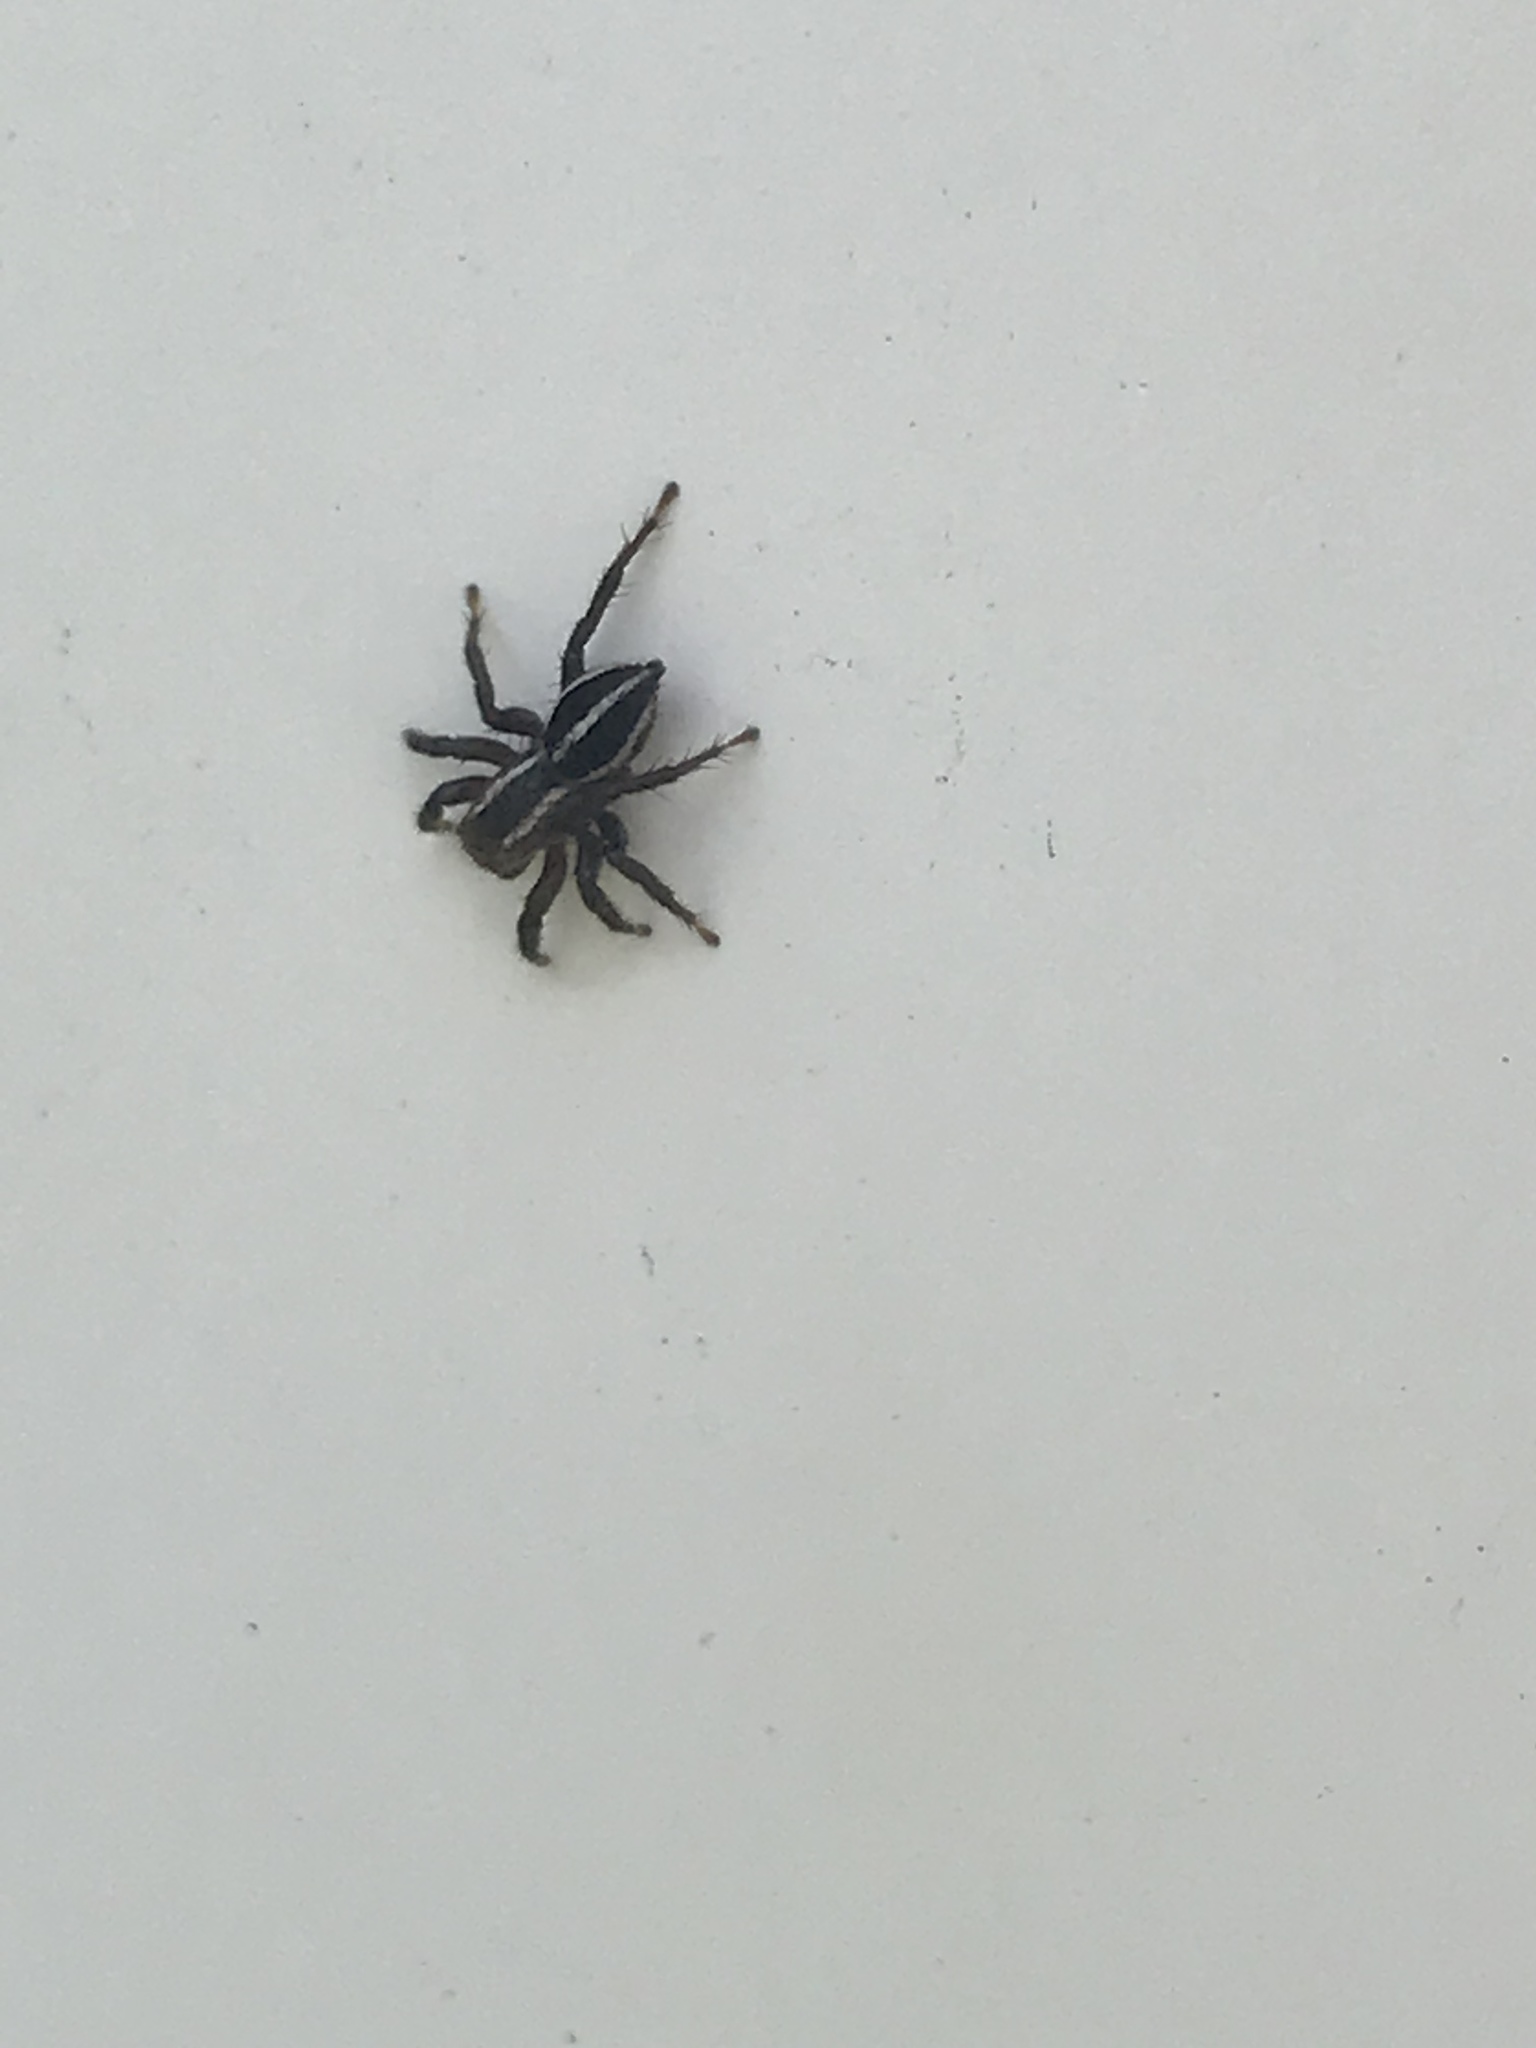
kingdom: Animalia
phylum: Arthropoda
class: Arachnida
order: Araneae
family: Salticidae
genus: Phlegra
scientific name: Phlegra hentzi
